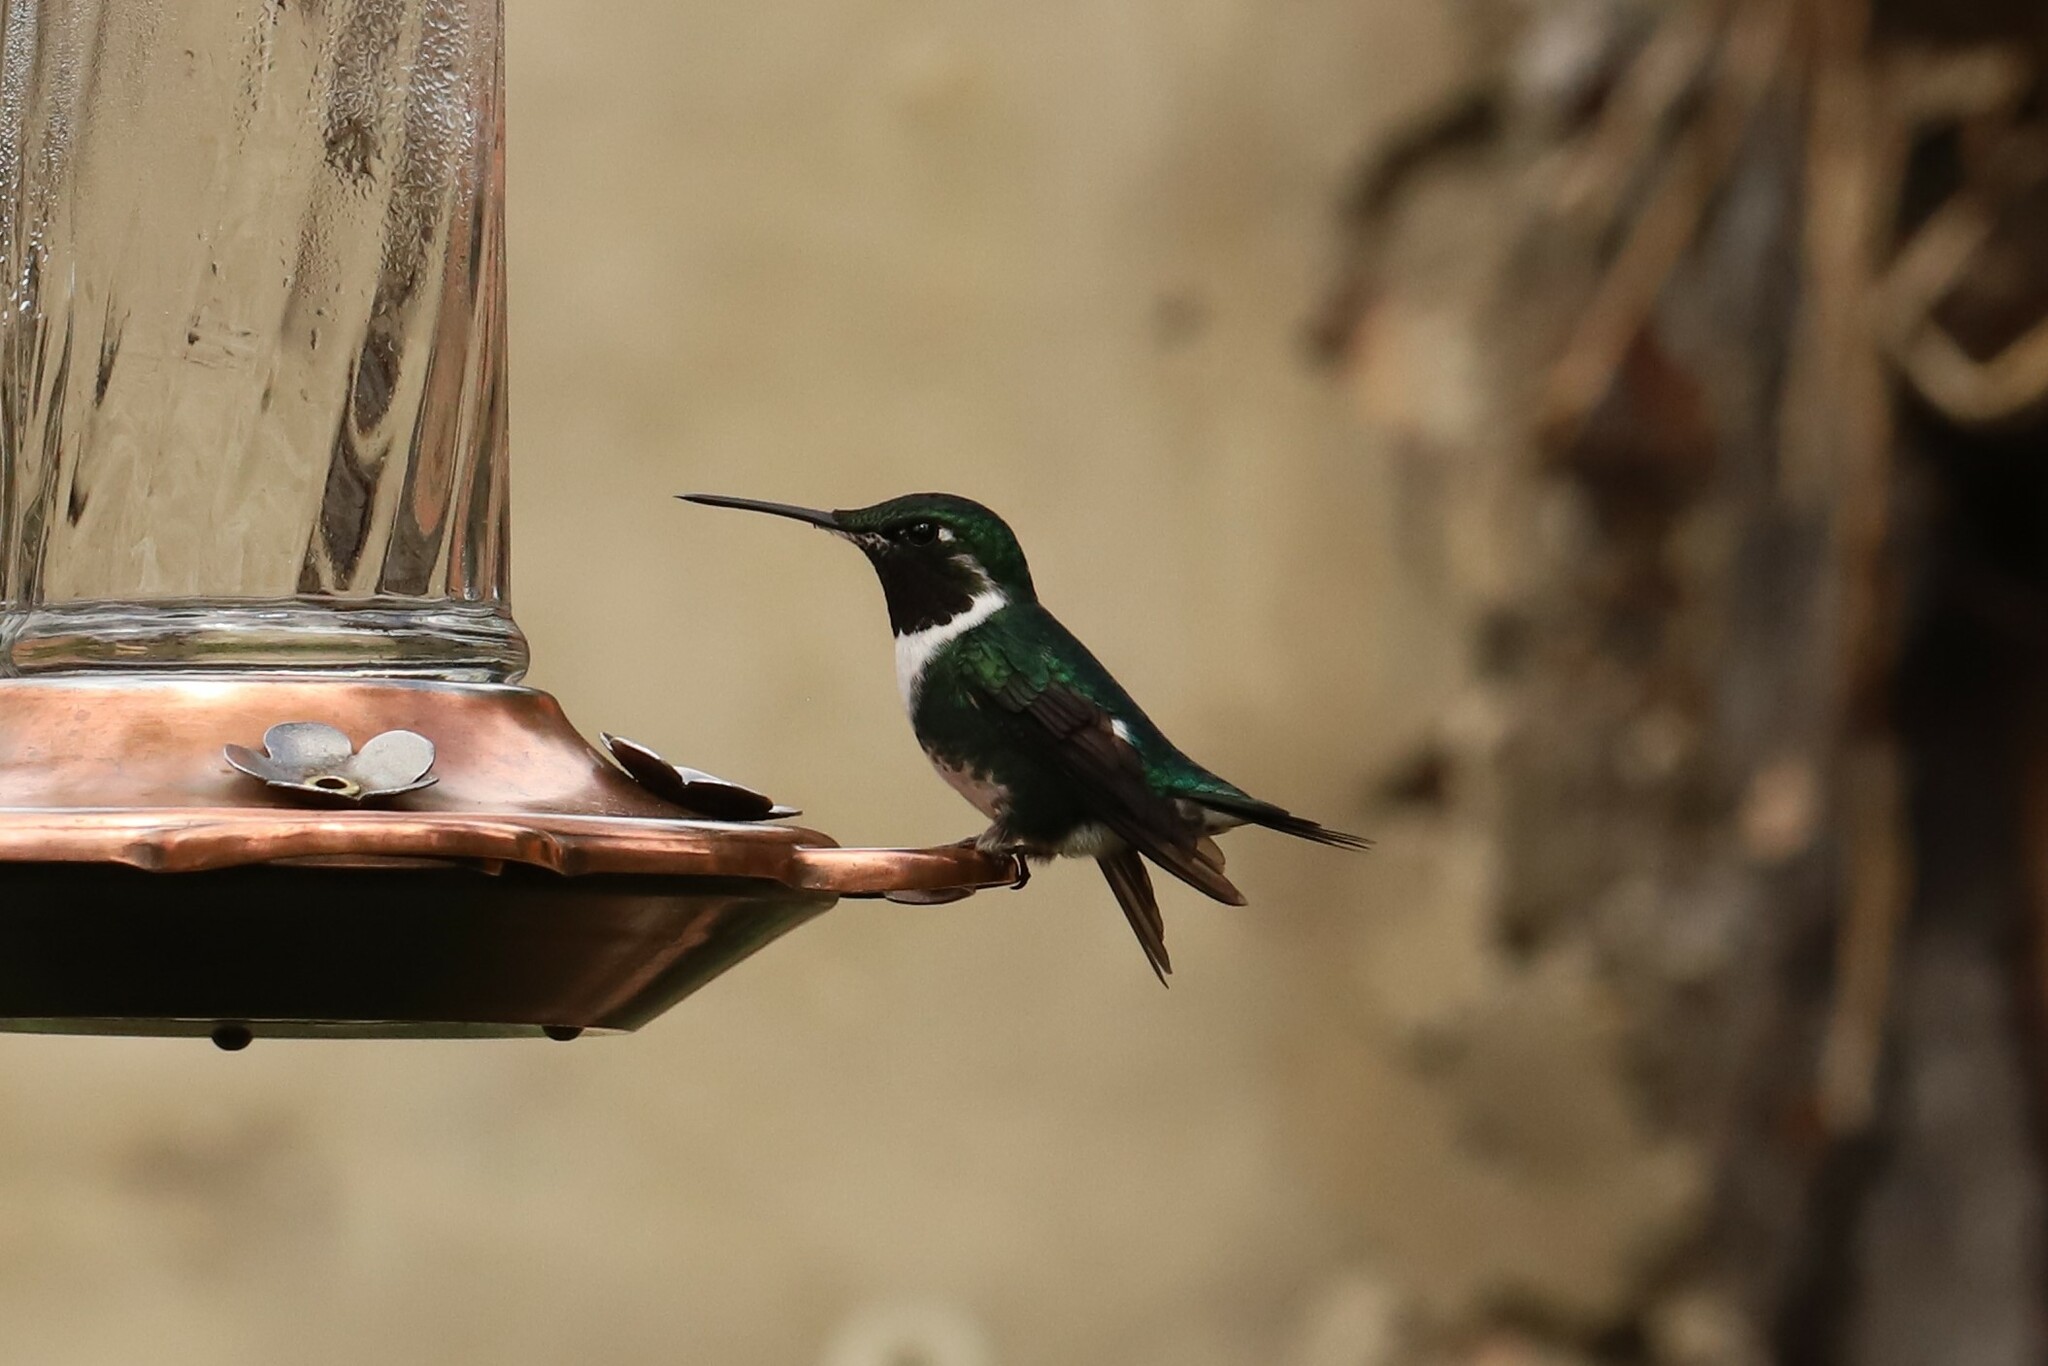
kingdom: Animalia
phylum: Chordata
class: Aves
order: Apodiformes
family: Trochilidae
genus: Chaetocercus
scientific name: Chaetocercus mulsant
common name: White-bellied woodstar
